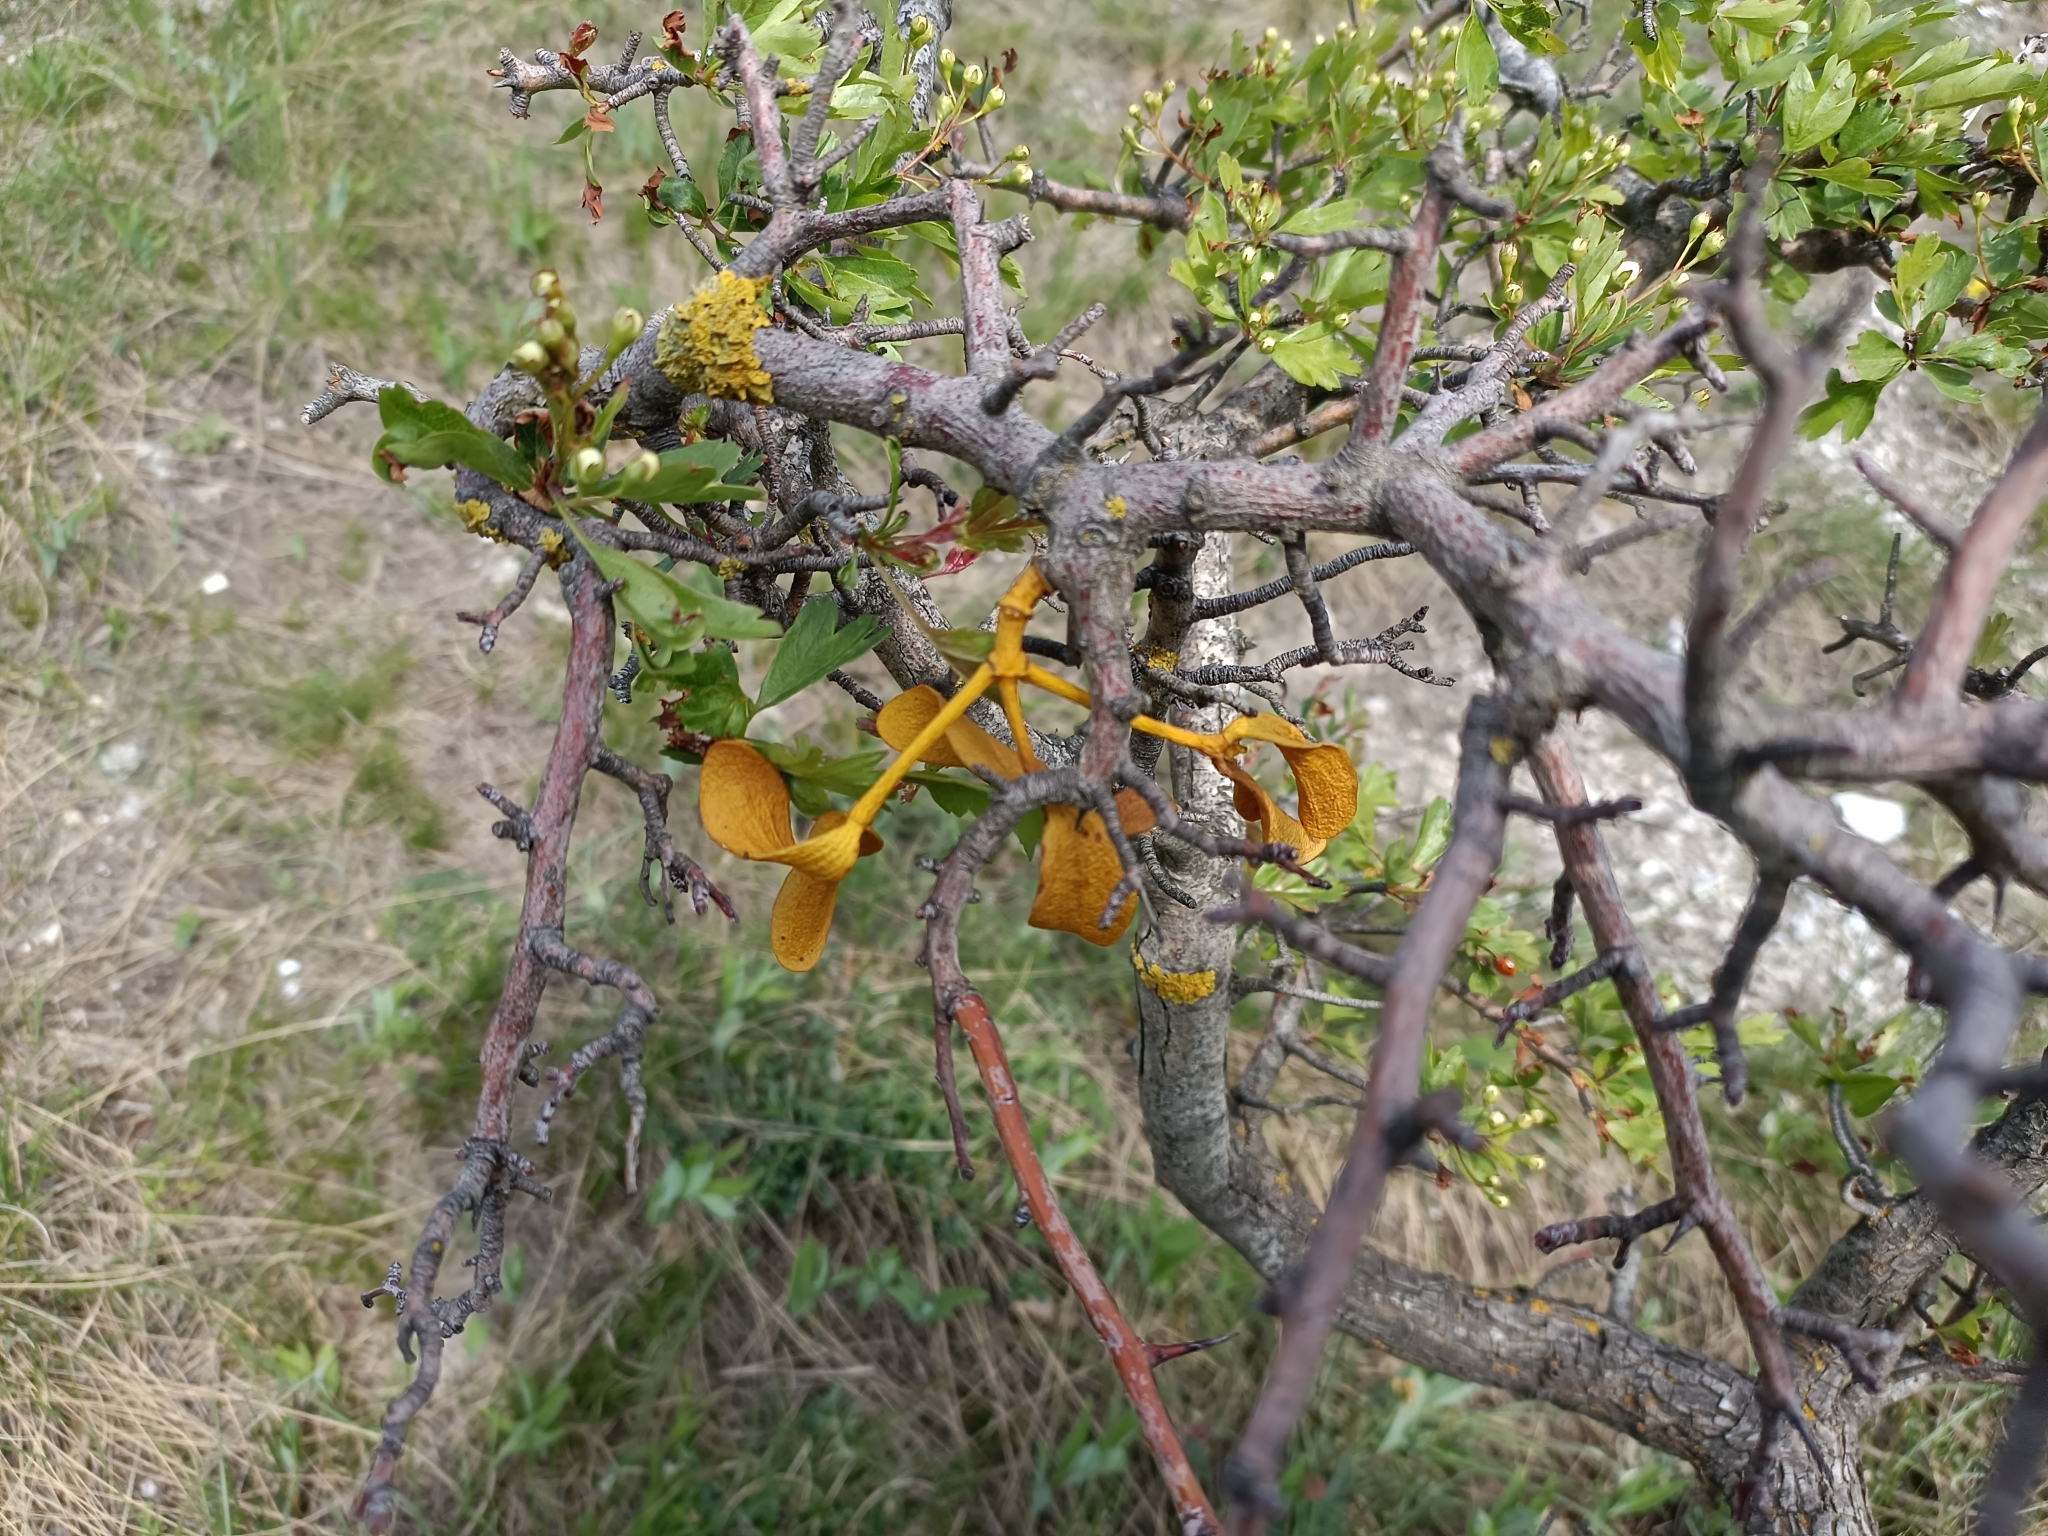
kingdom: Plantae
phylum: Tracheophyta
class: Magnoliopsida
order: Santalales
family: Viscaceae
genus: Viscum
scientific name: Viscum album
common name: Mistletoe
